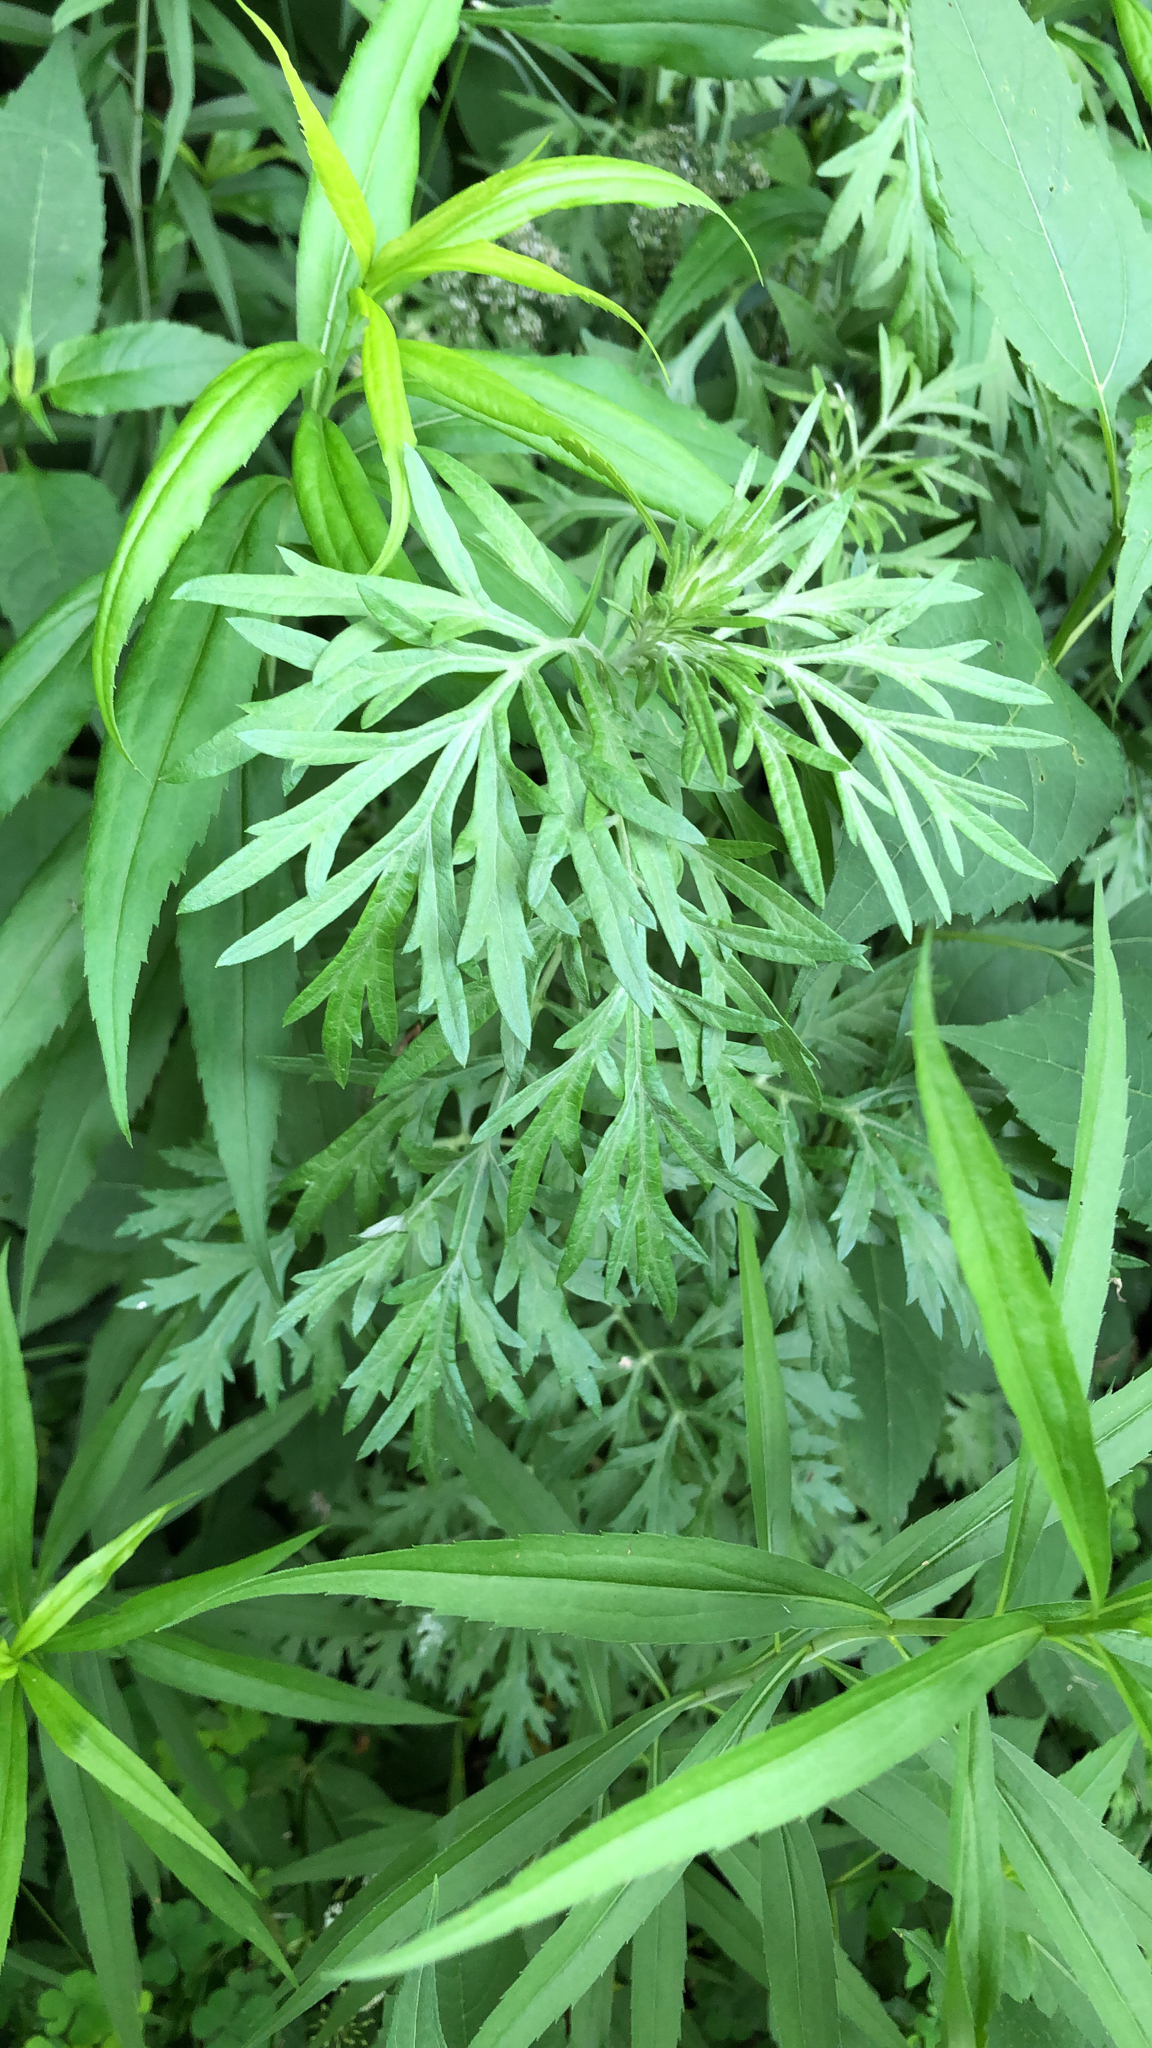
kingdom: Plantae
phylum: Tracheophyta
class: Magnoliopsida
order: Asterales
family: Asteraceae
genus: Artemisia
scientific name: Artemisia vulgaris
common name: Mugwort
